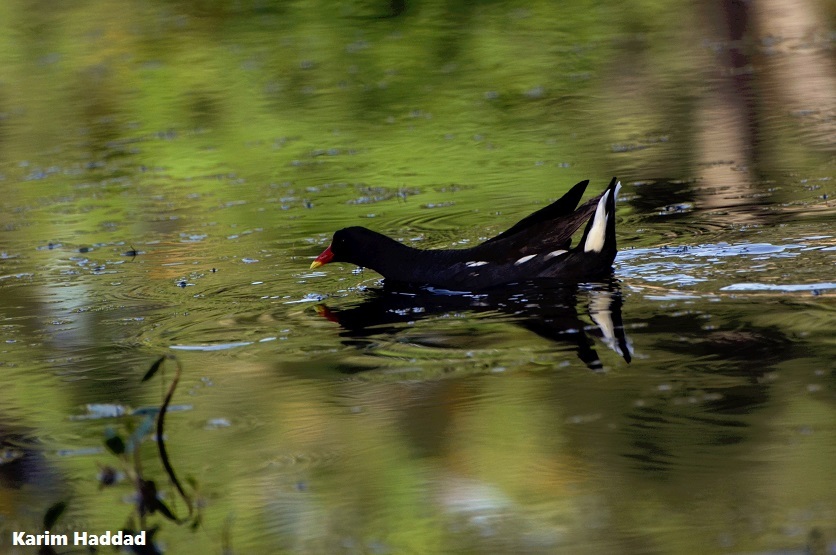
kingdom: Animalia
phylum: Chordata
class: Aves
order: Gruiformes
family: Rallidae
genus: Gallinula
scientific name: Gallinula chloropus
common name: Common moorhen
